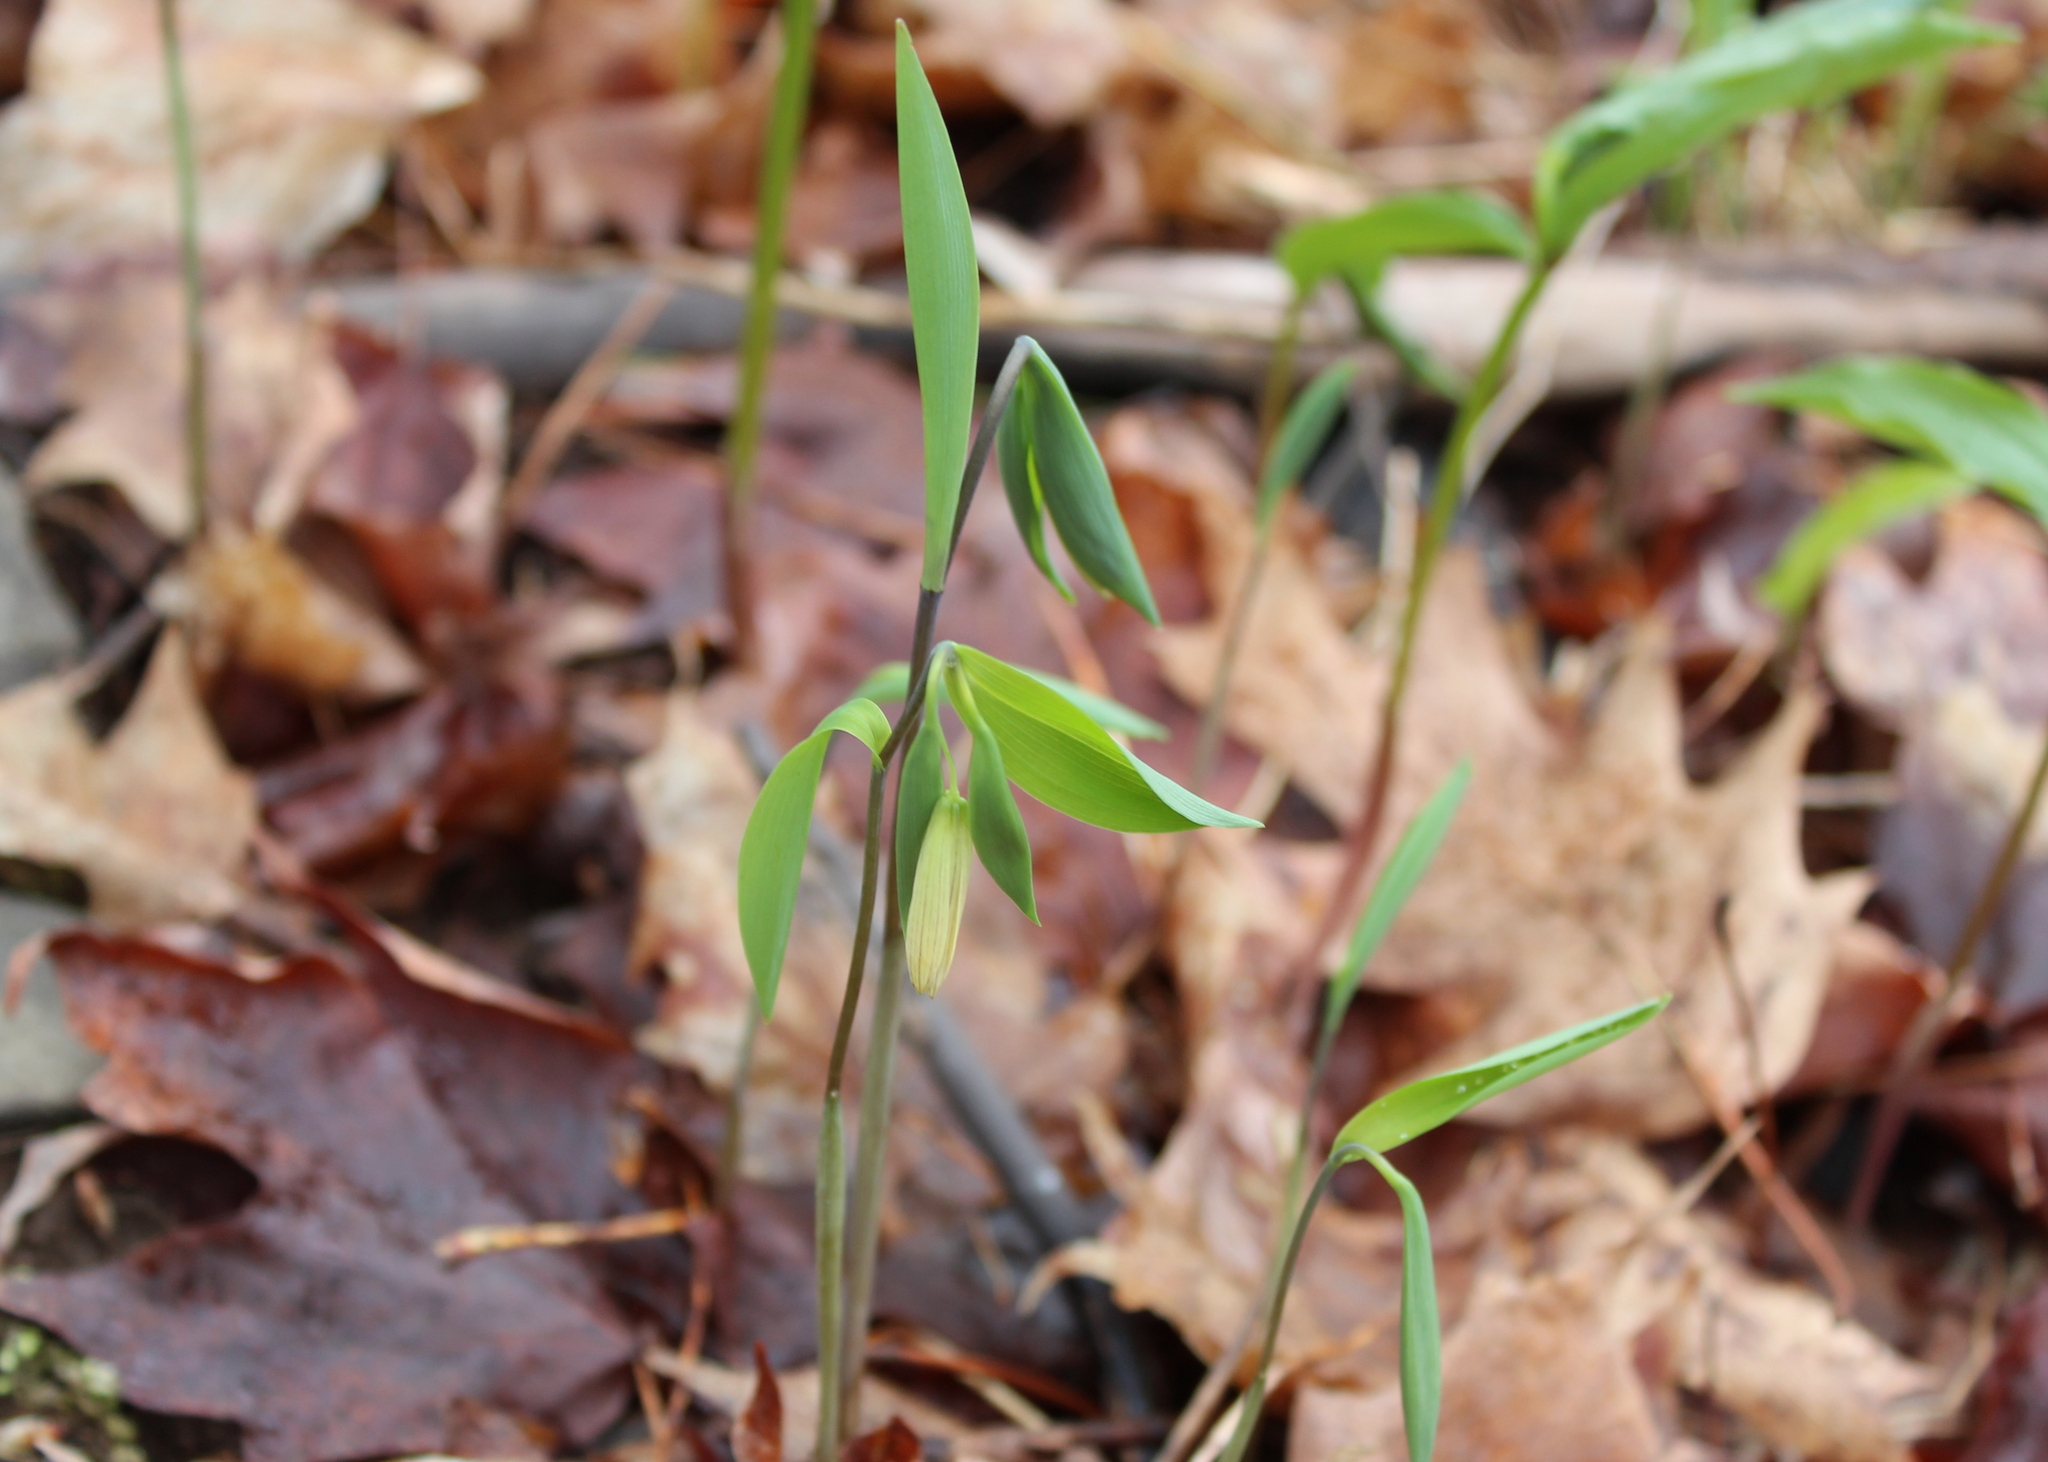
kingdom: Plantae
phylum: Tracheophyta
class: Liliopsida
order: Liliales
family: Colchicaceae
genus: Uvularia
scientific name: Uvularia sessilifolia
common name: Straw-lily
